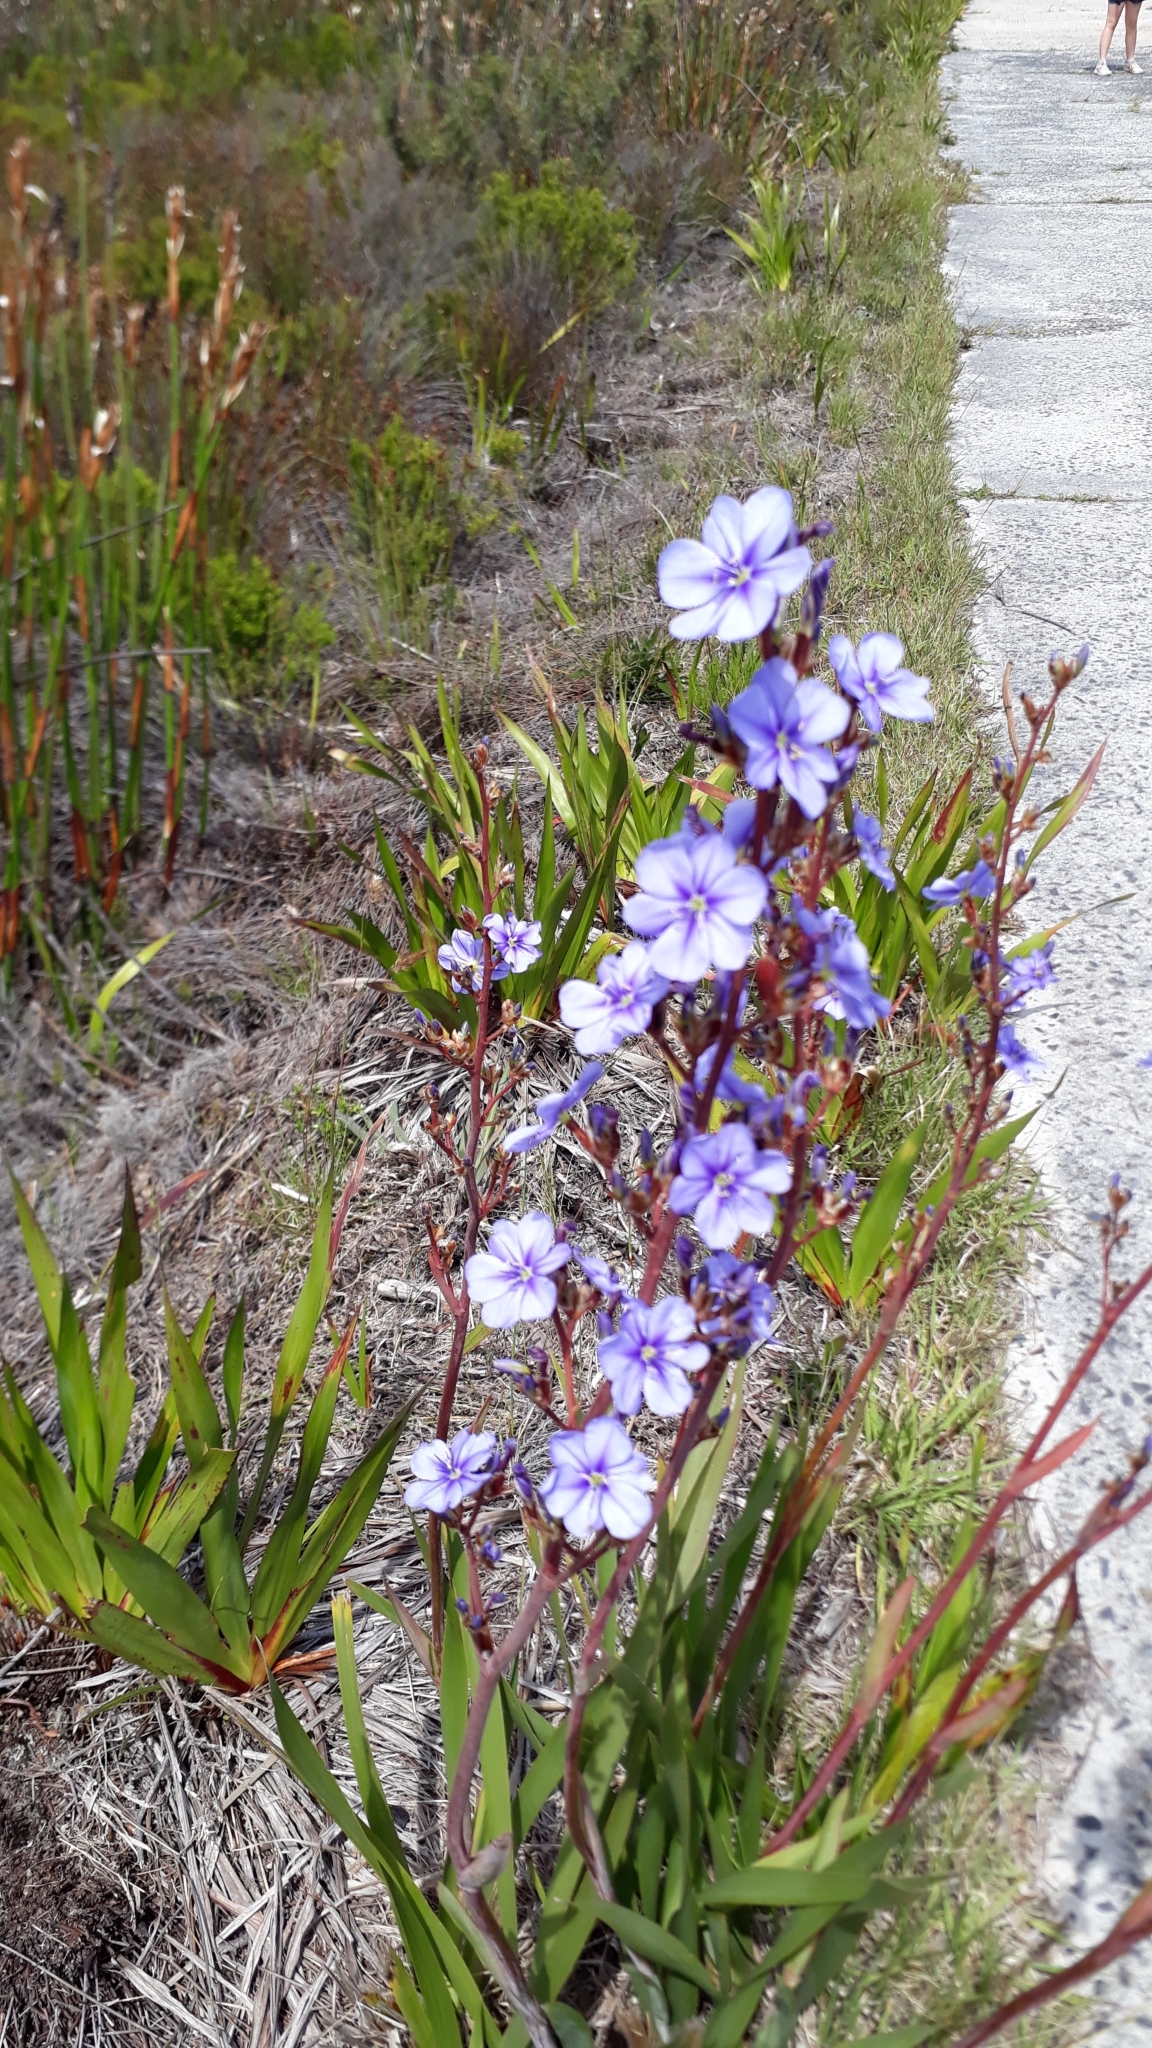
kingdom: Plantae
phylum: Tracheophyta
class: Liliopsida
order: Asparagales
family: Iridaceae
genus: Aristea
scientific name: Aristea bakeri
